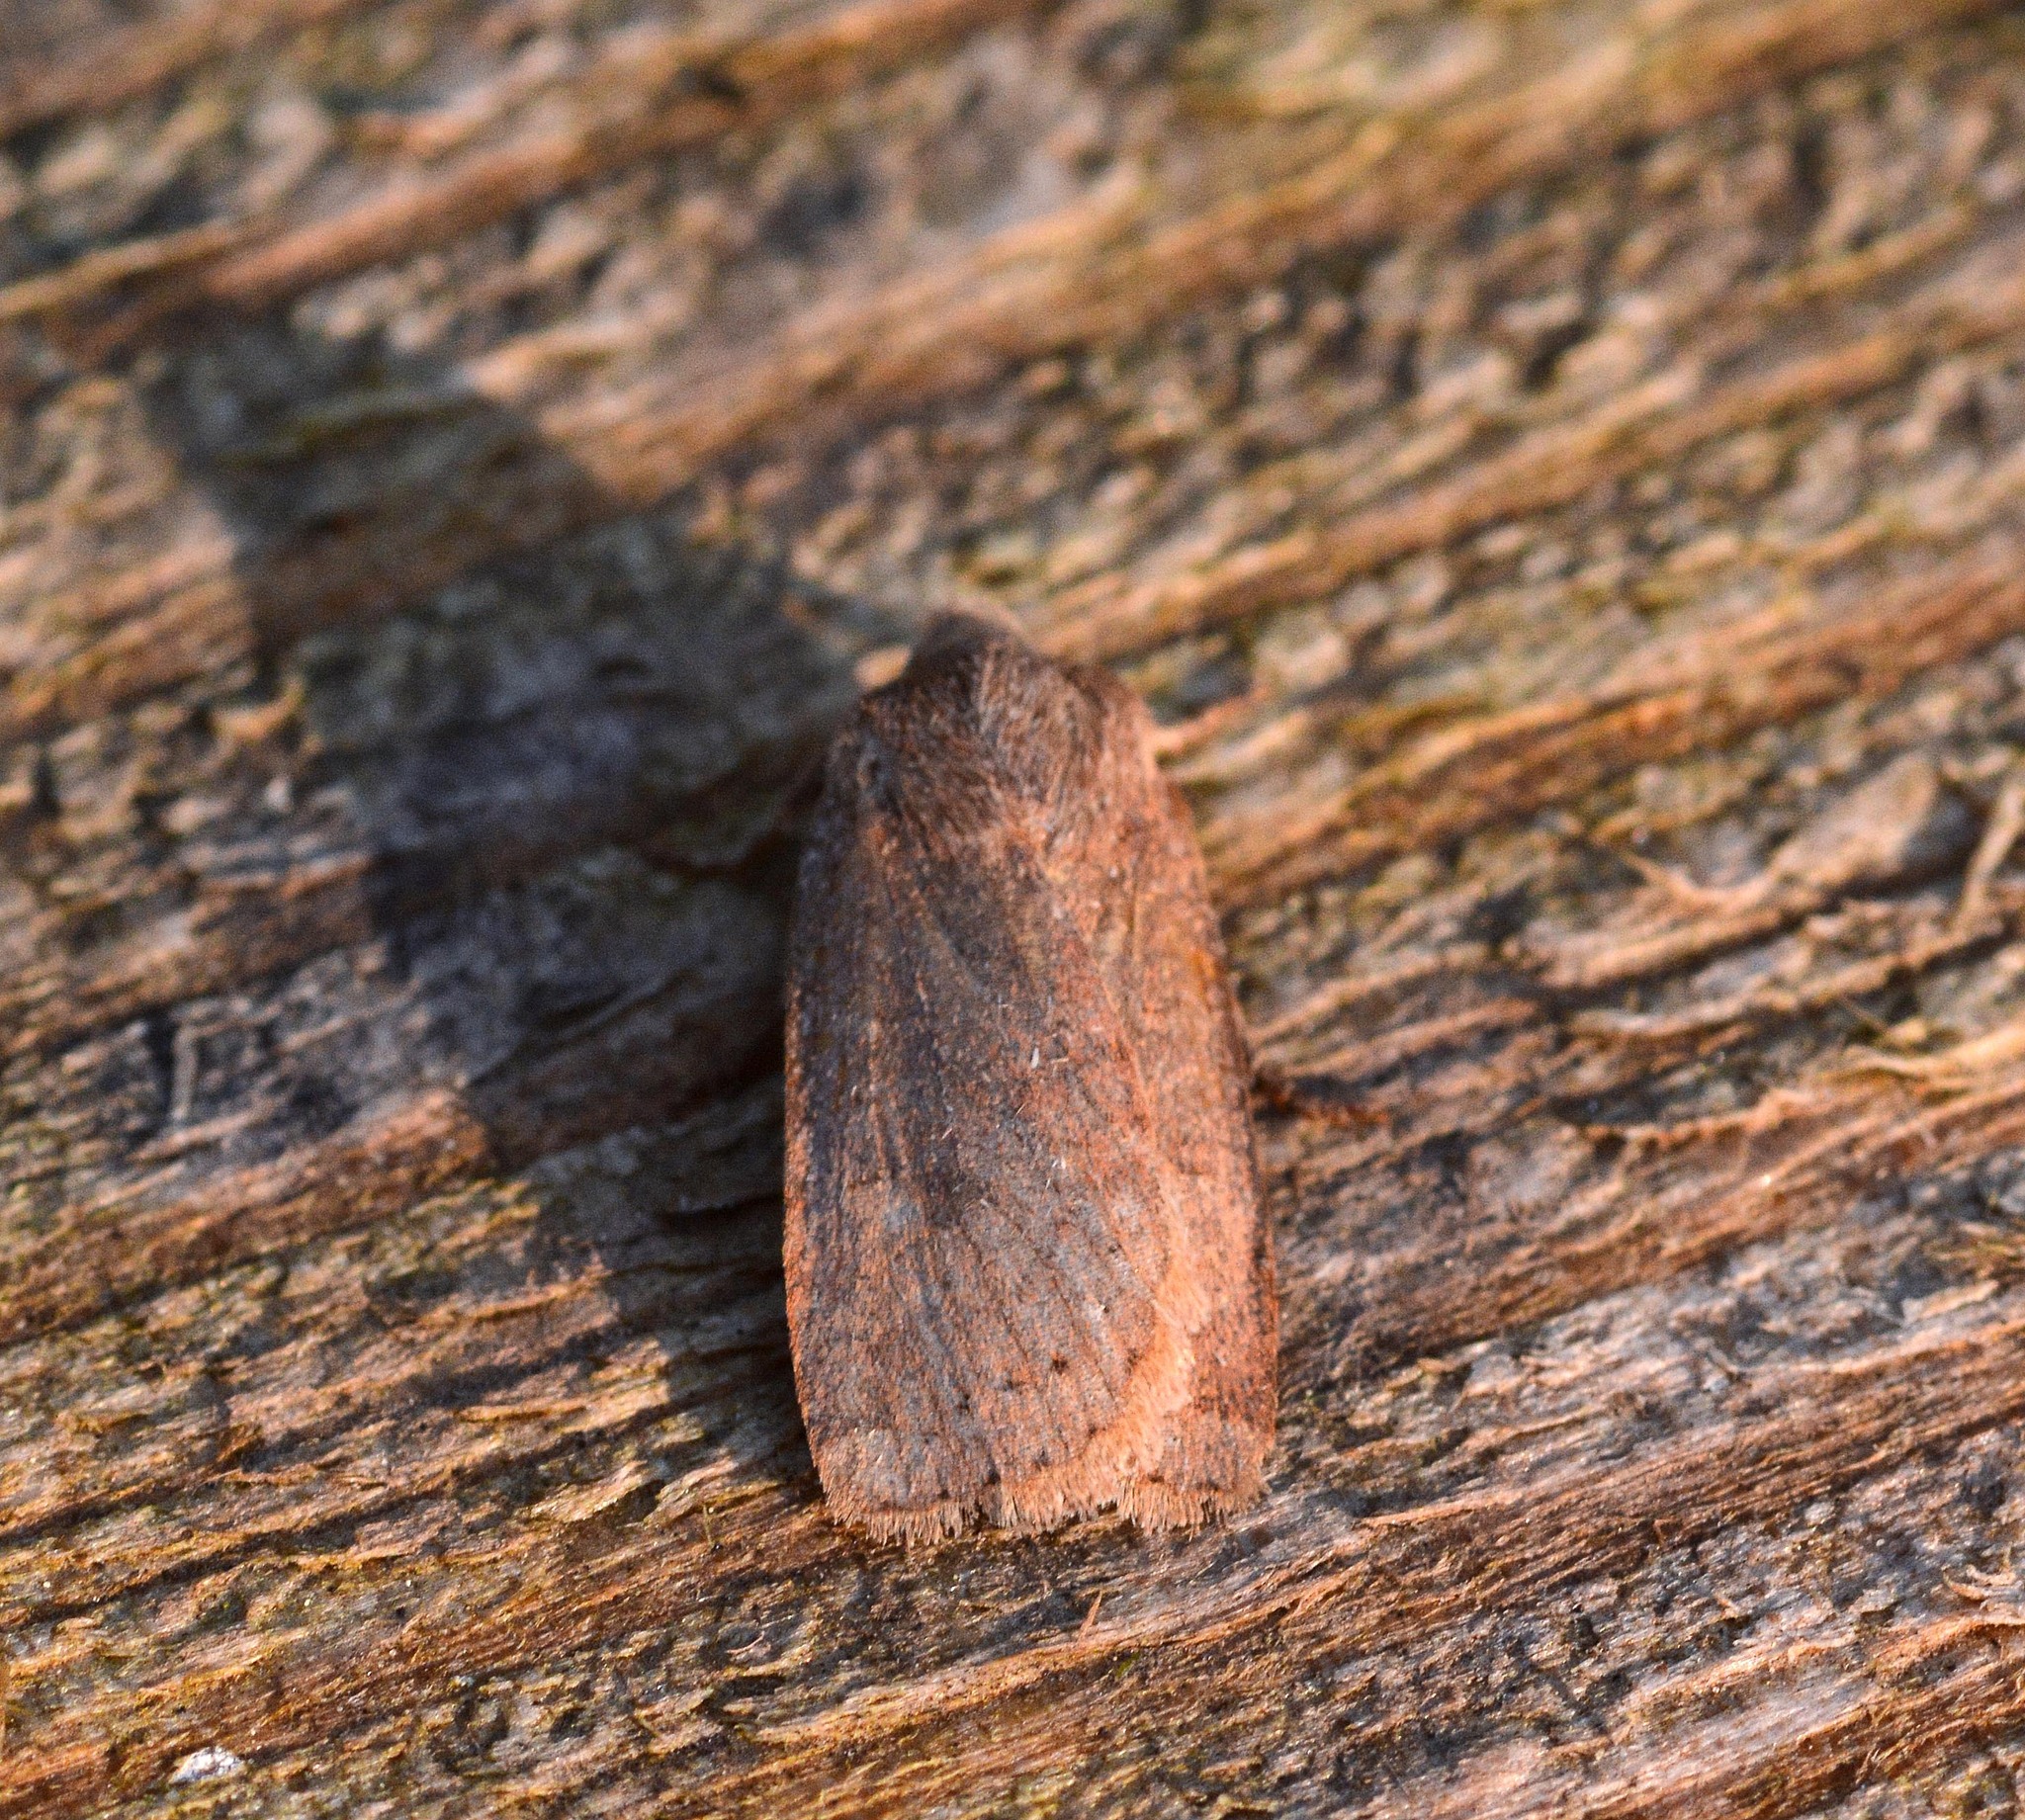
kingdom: Animalia
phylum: Arthropoda
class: Insecta
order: Lepidoptera
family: Noctuidae
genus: Conistra
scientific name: Conistra vaccinii
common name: Chestnut
